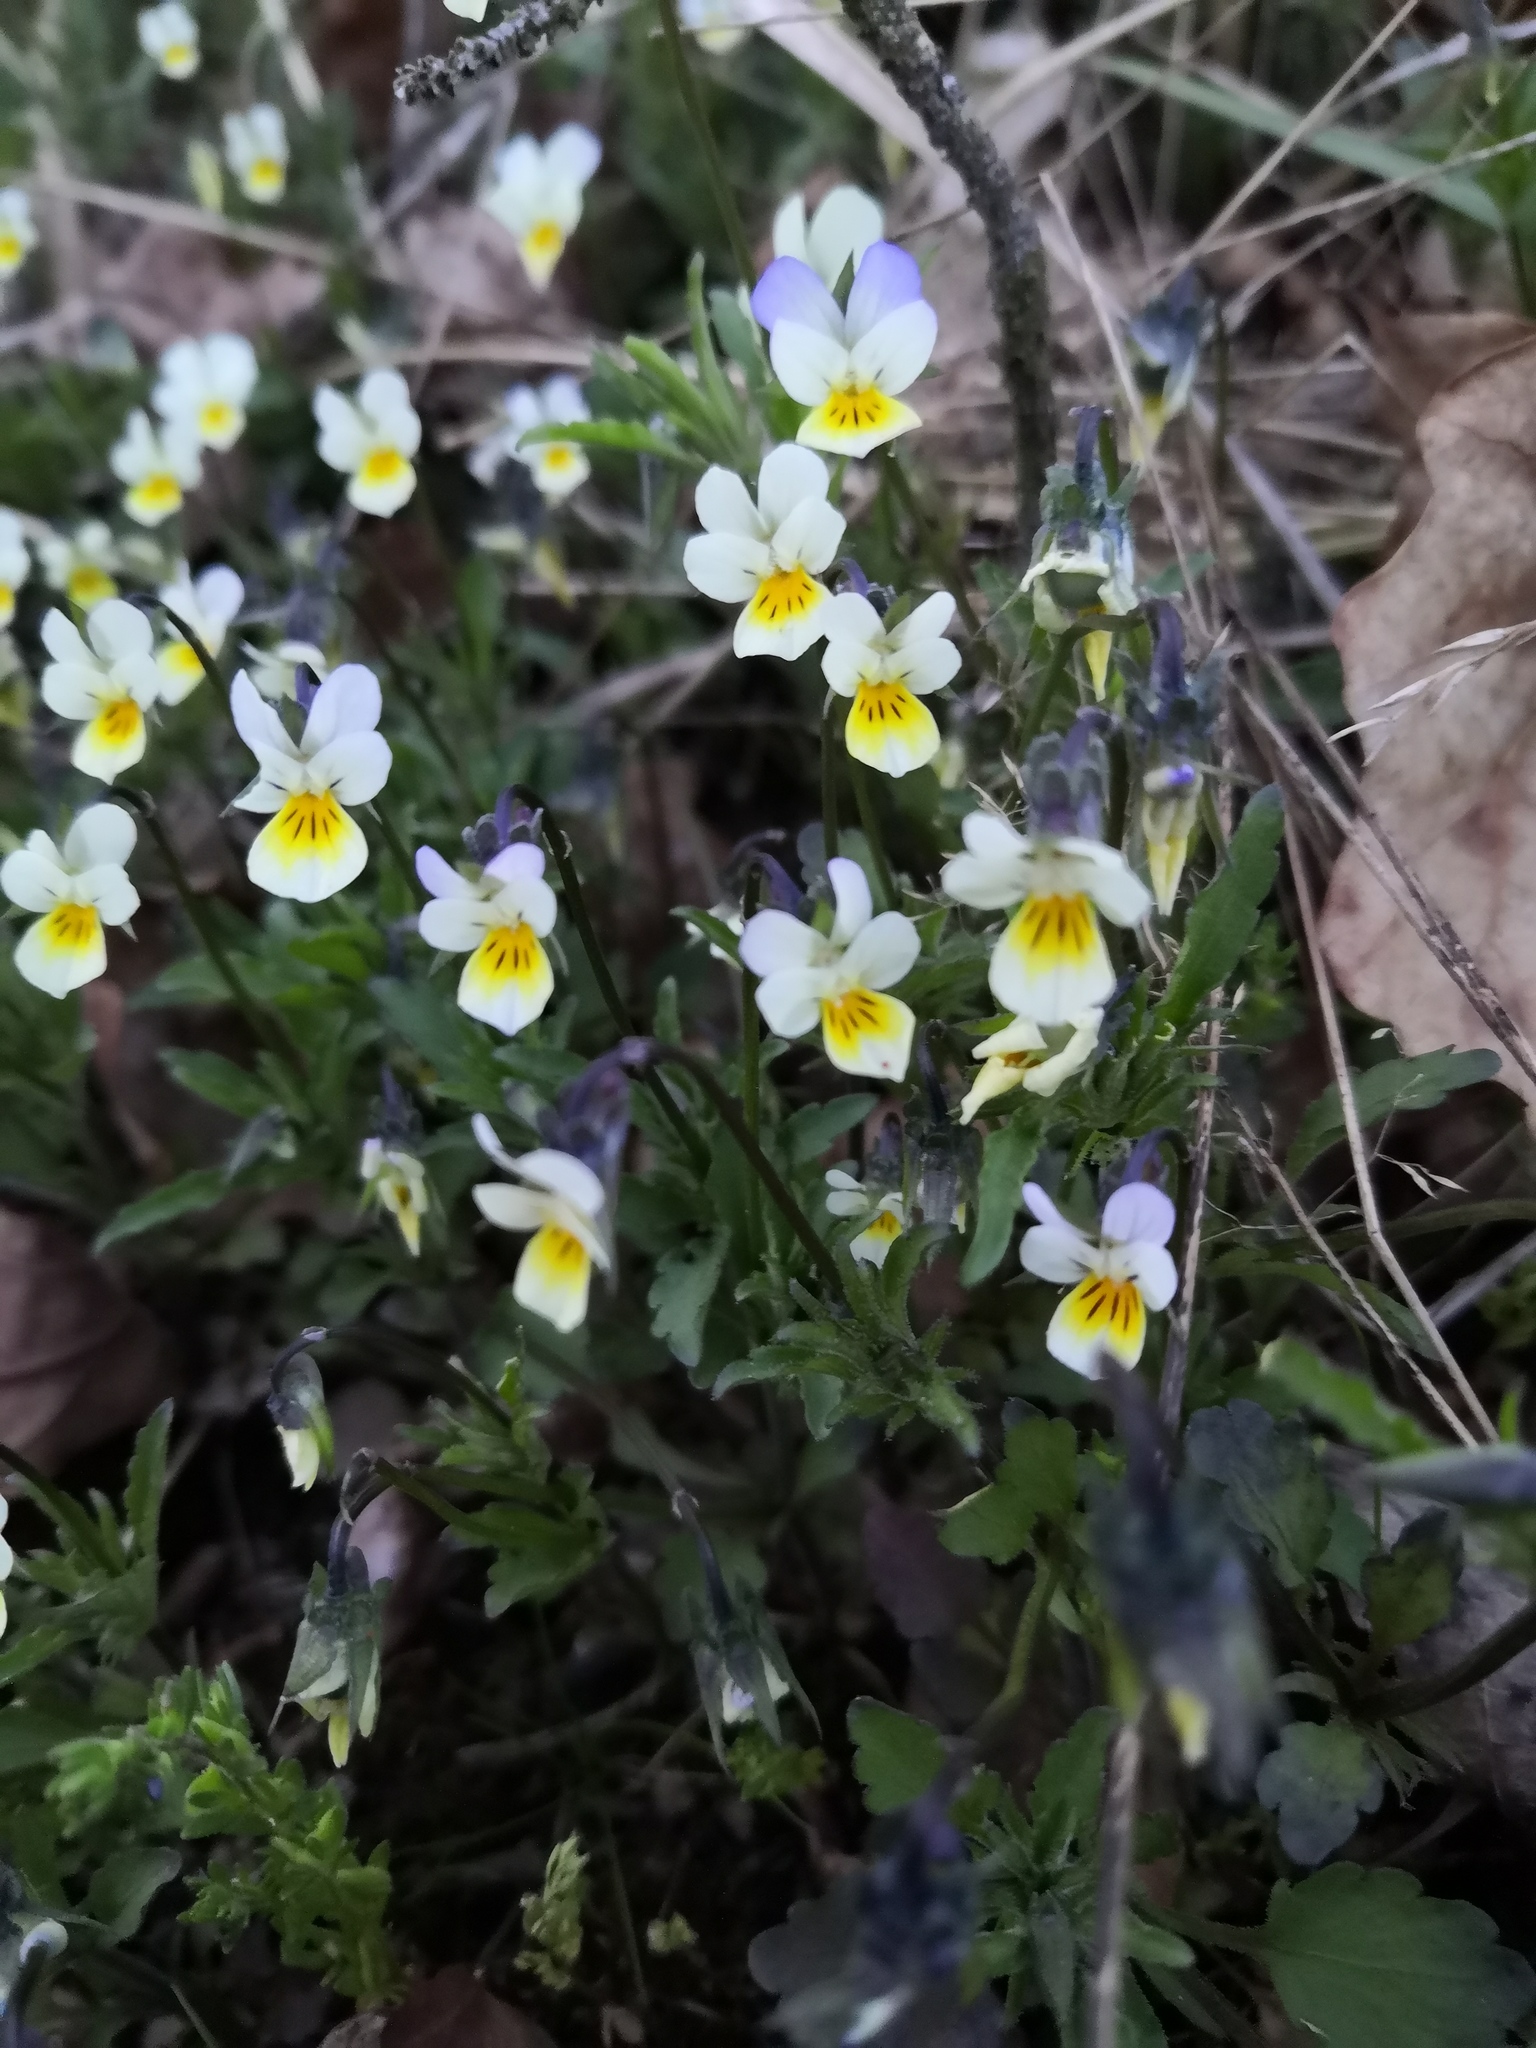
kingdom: Plantae
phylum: Tracheophyta
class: Magnoliopsida
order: Malpighiales
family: Violaceae
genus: Viola
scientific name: Viola arvensis
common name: Field pansy
